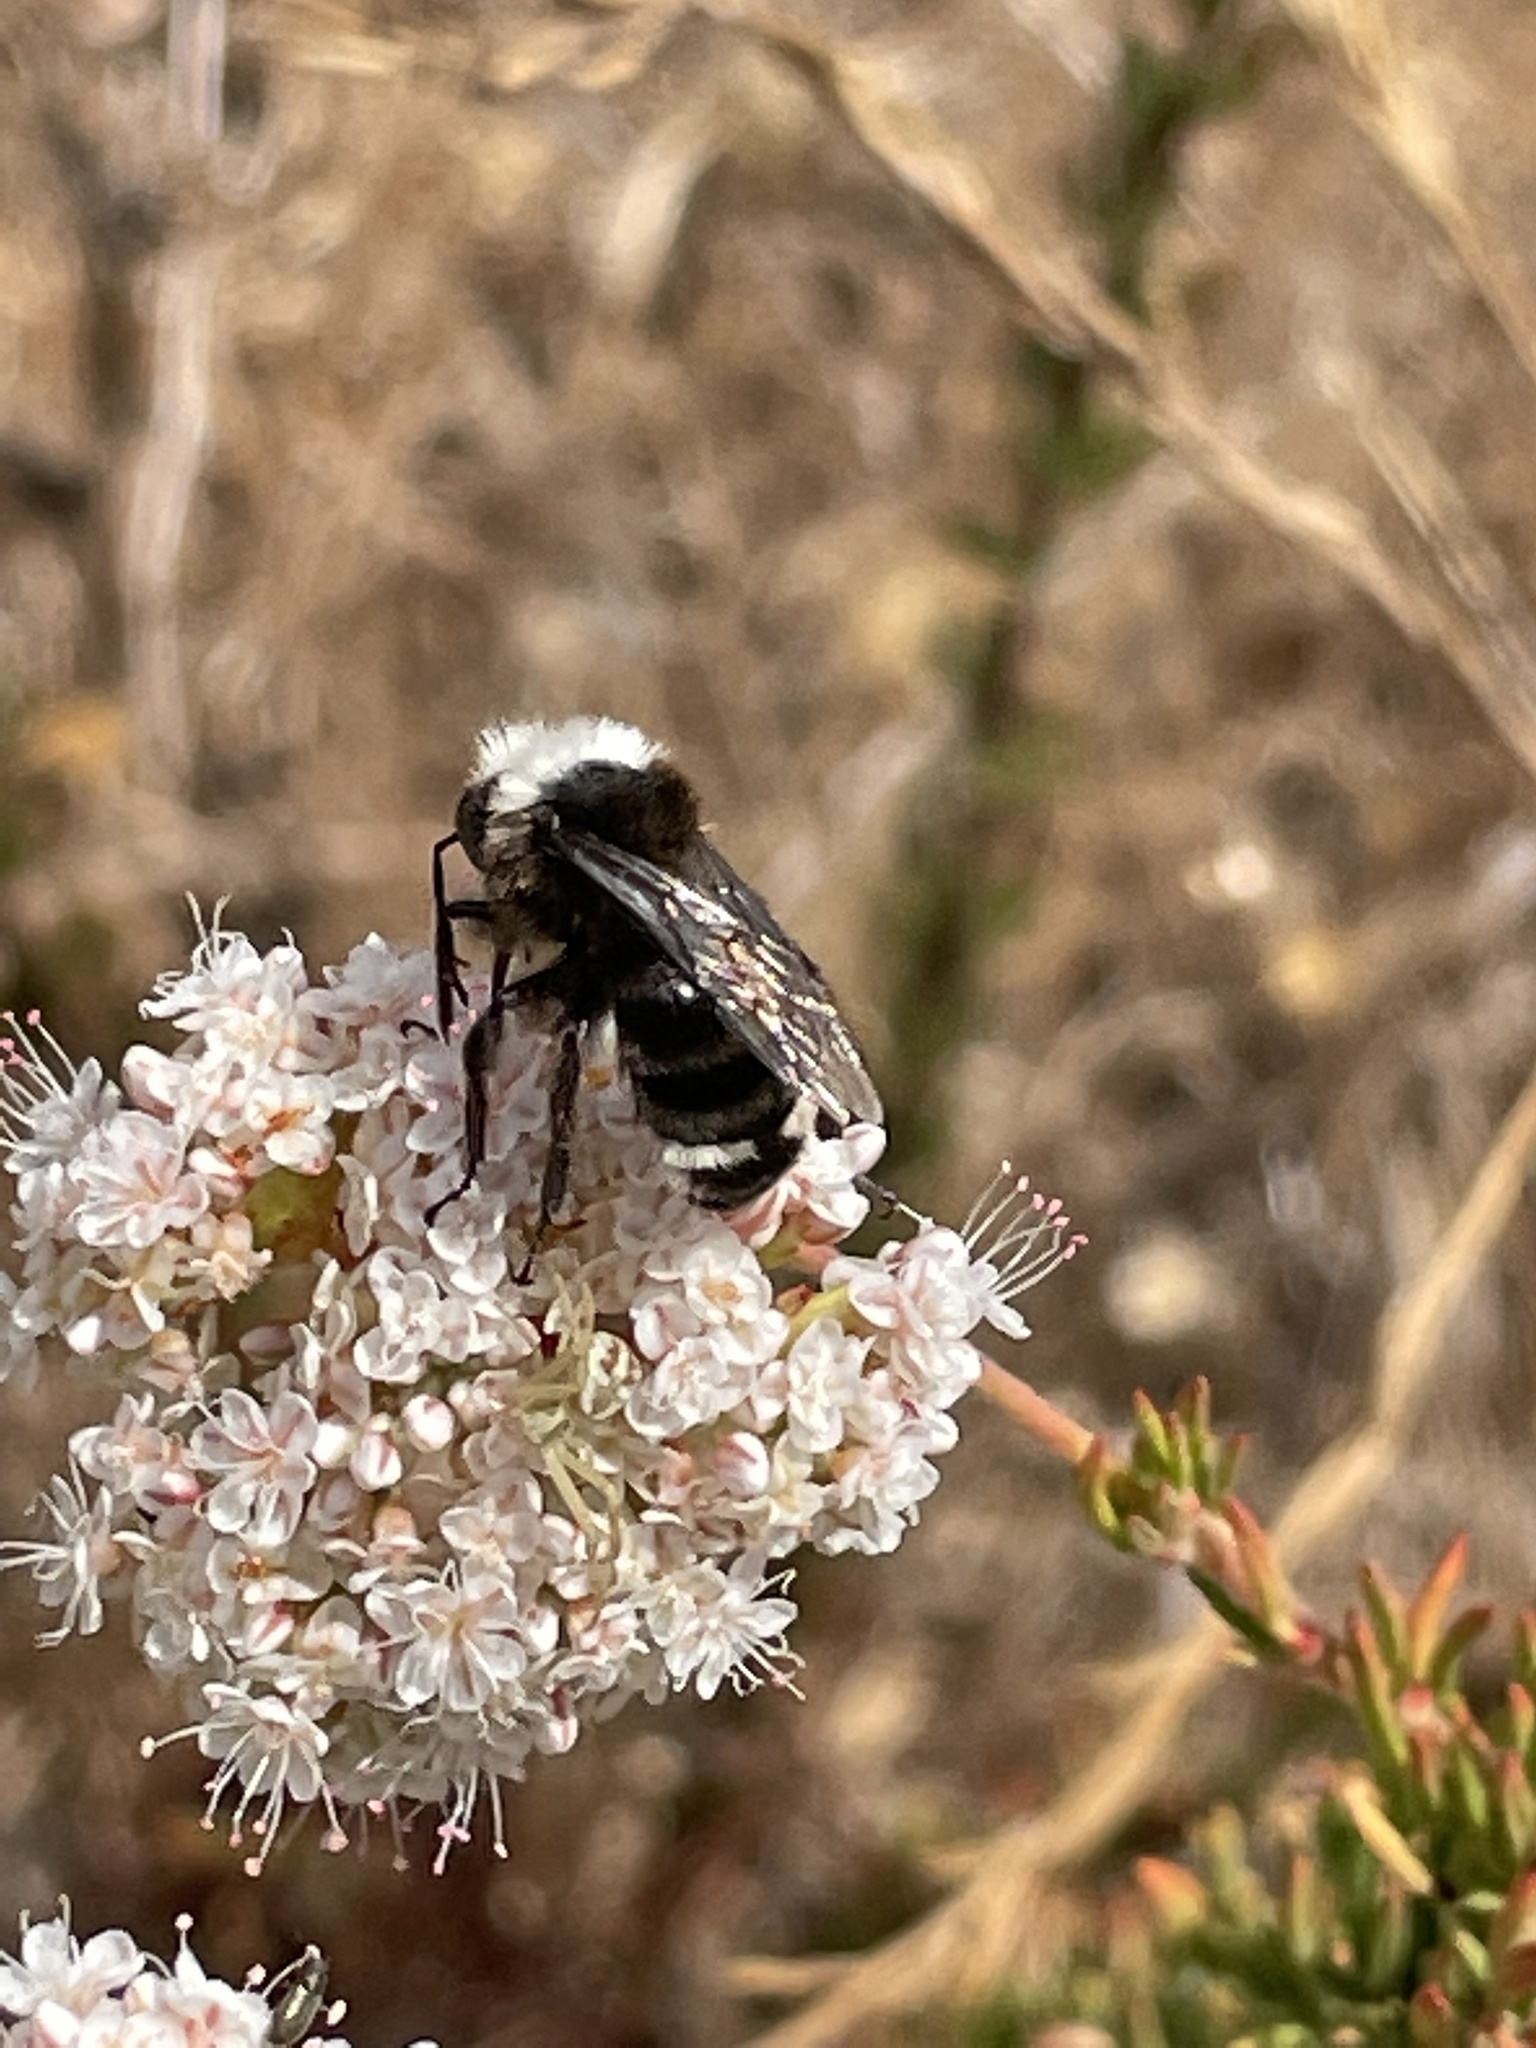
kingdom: Animalia
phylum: Arthropoda
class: Insecta
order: Hymenoptera
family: Apidae
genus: Bombus
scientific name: Bombus vosnesenskii
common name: Vosnesensky bumble bee
